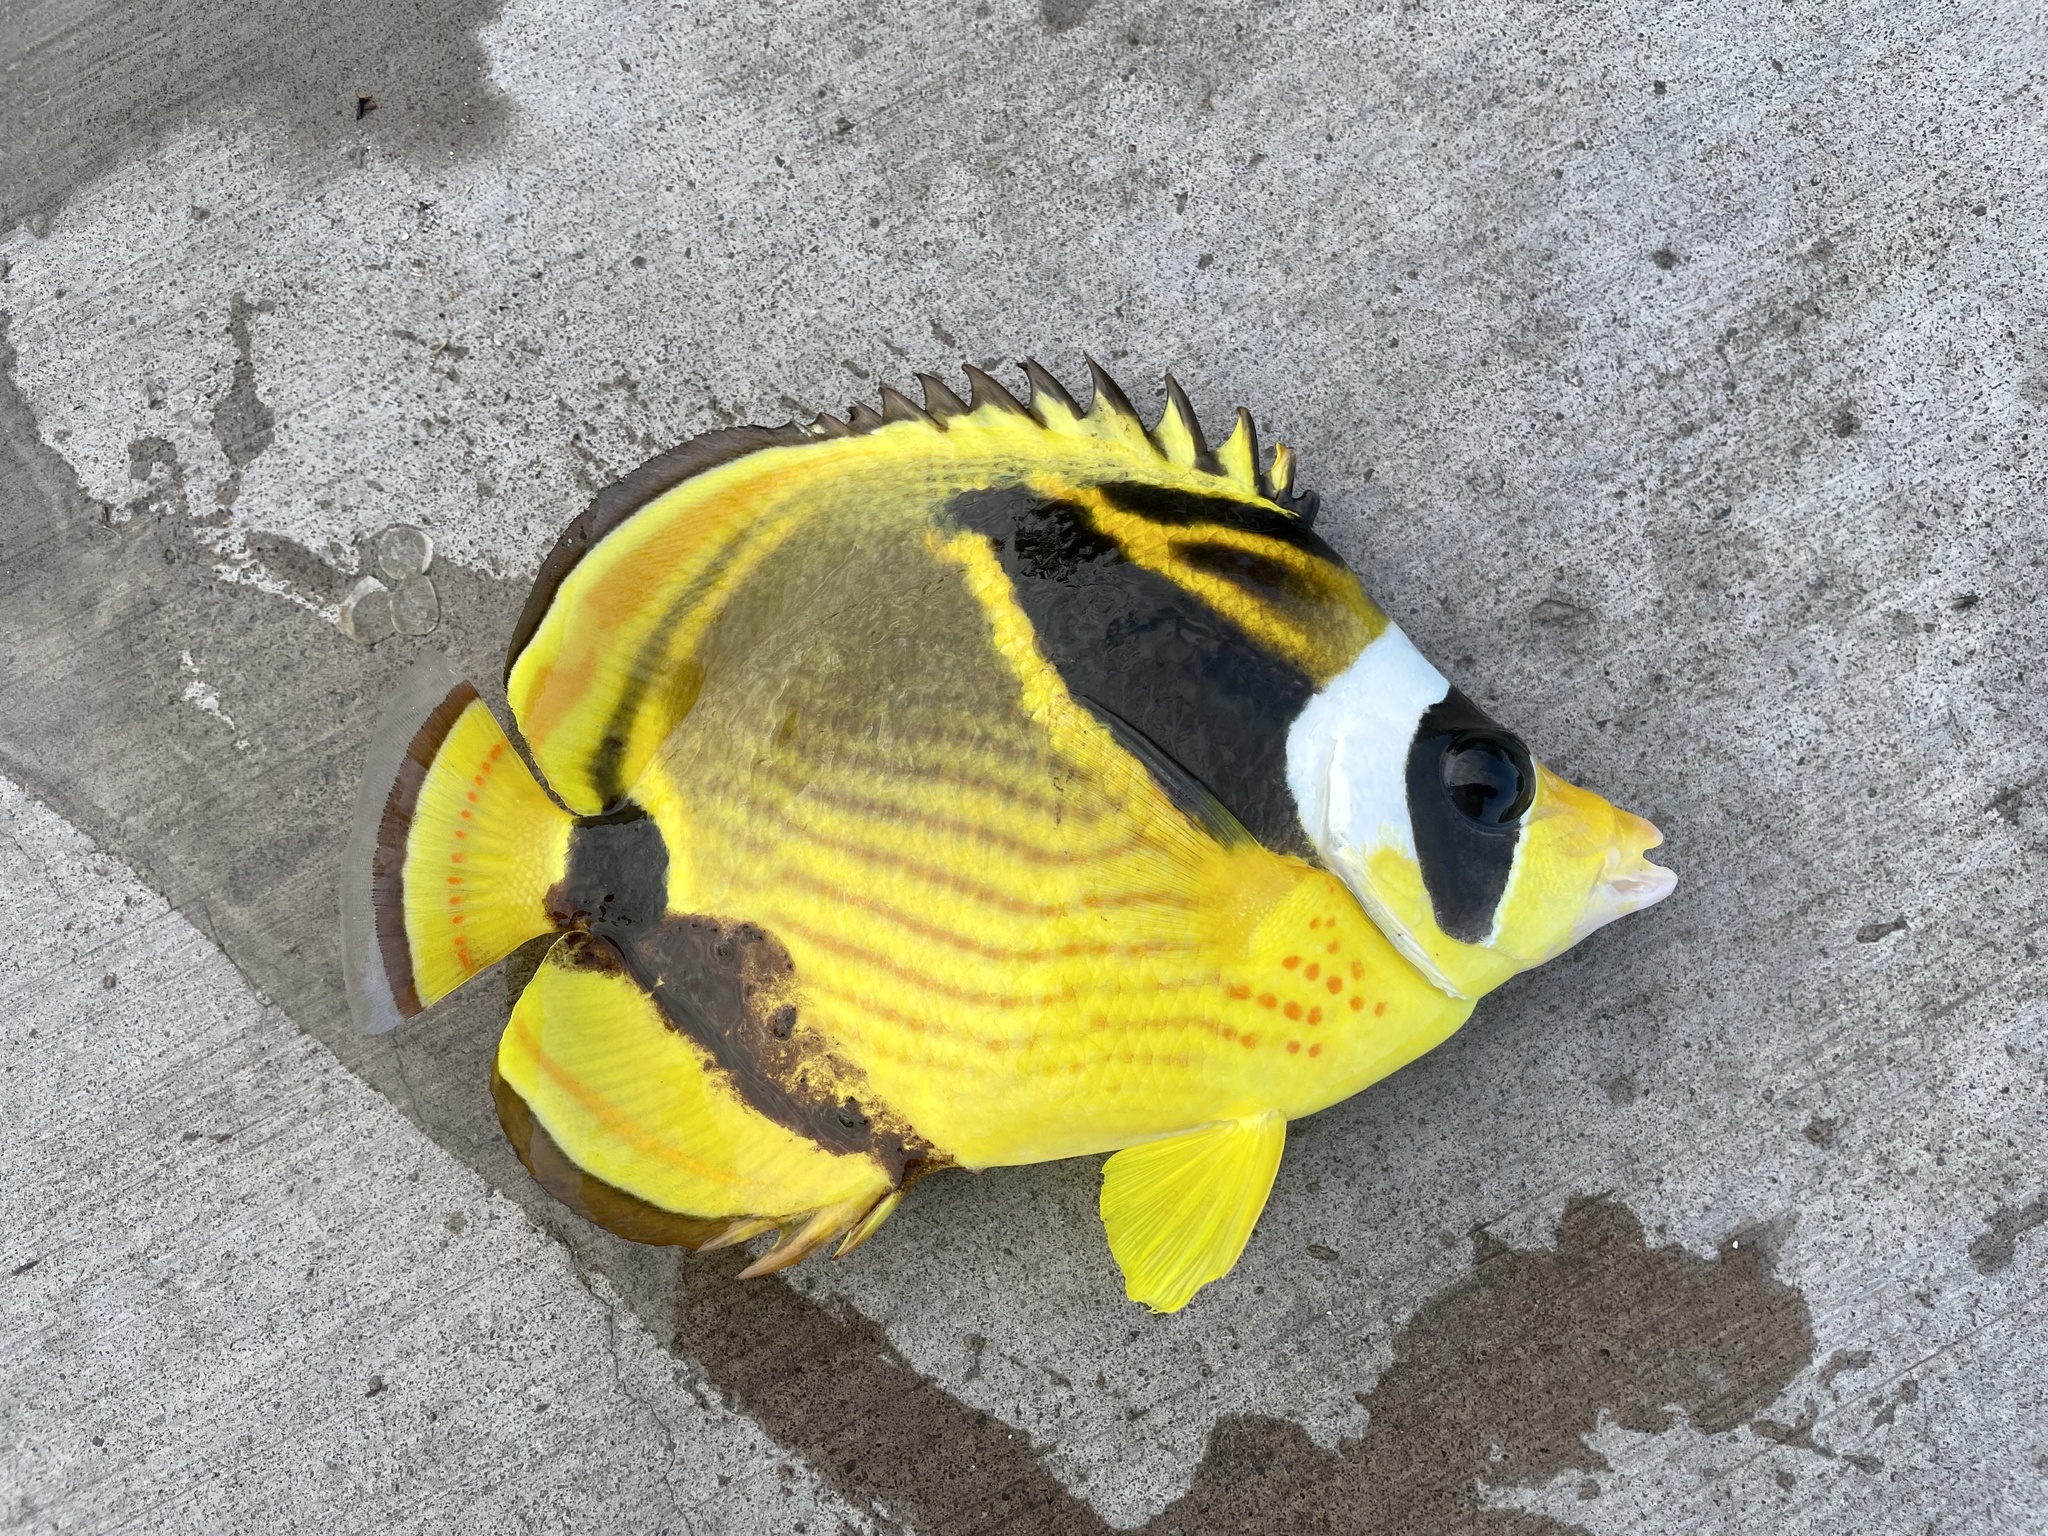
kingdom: Animalia
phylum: Chordata
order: Perciformes
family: Chaetodontidae
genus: Chaetodon
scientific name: Chaetodon lunula
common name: Raccoon butterflyfish
